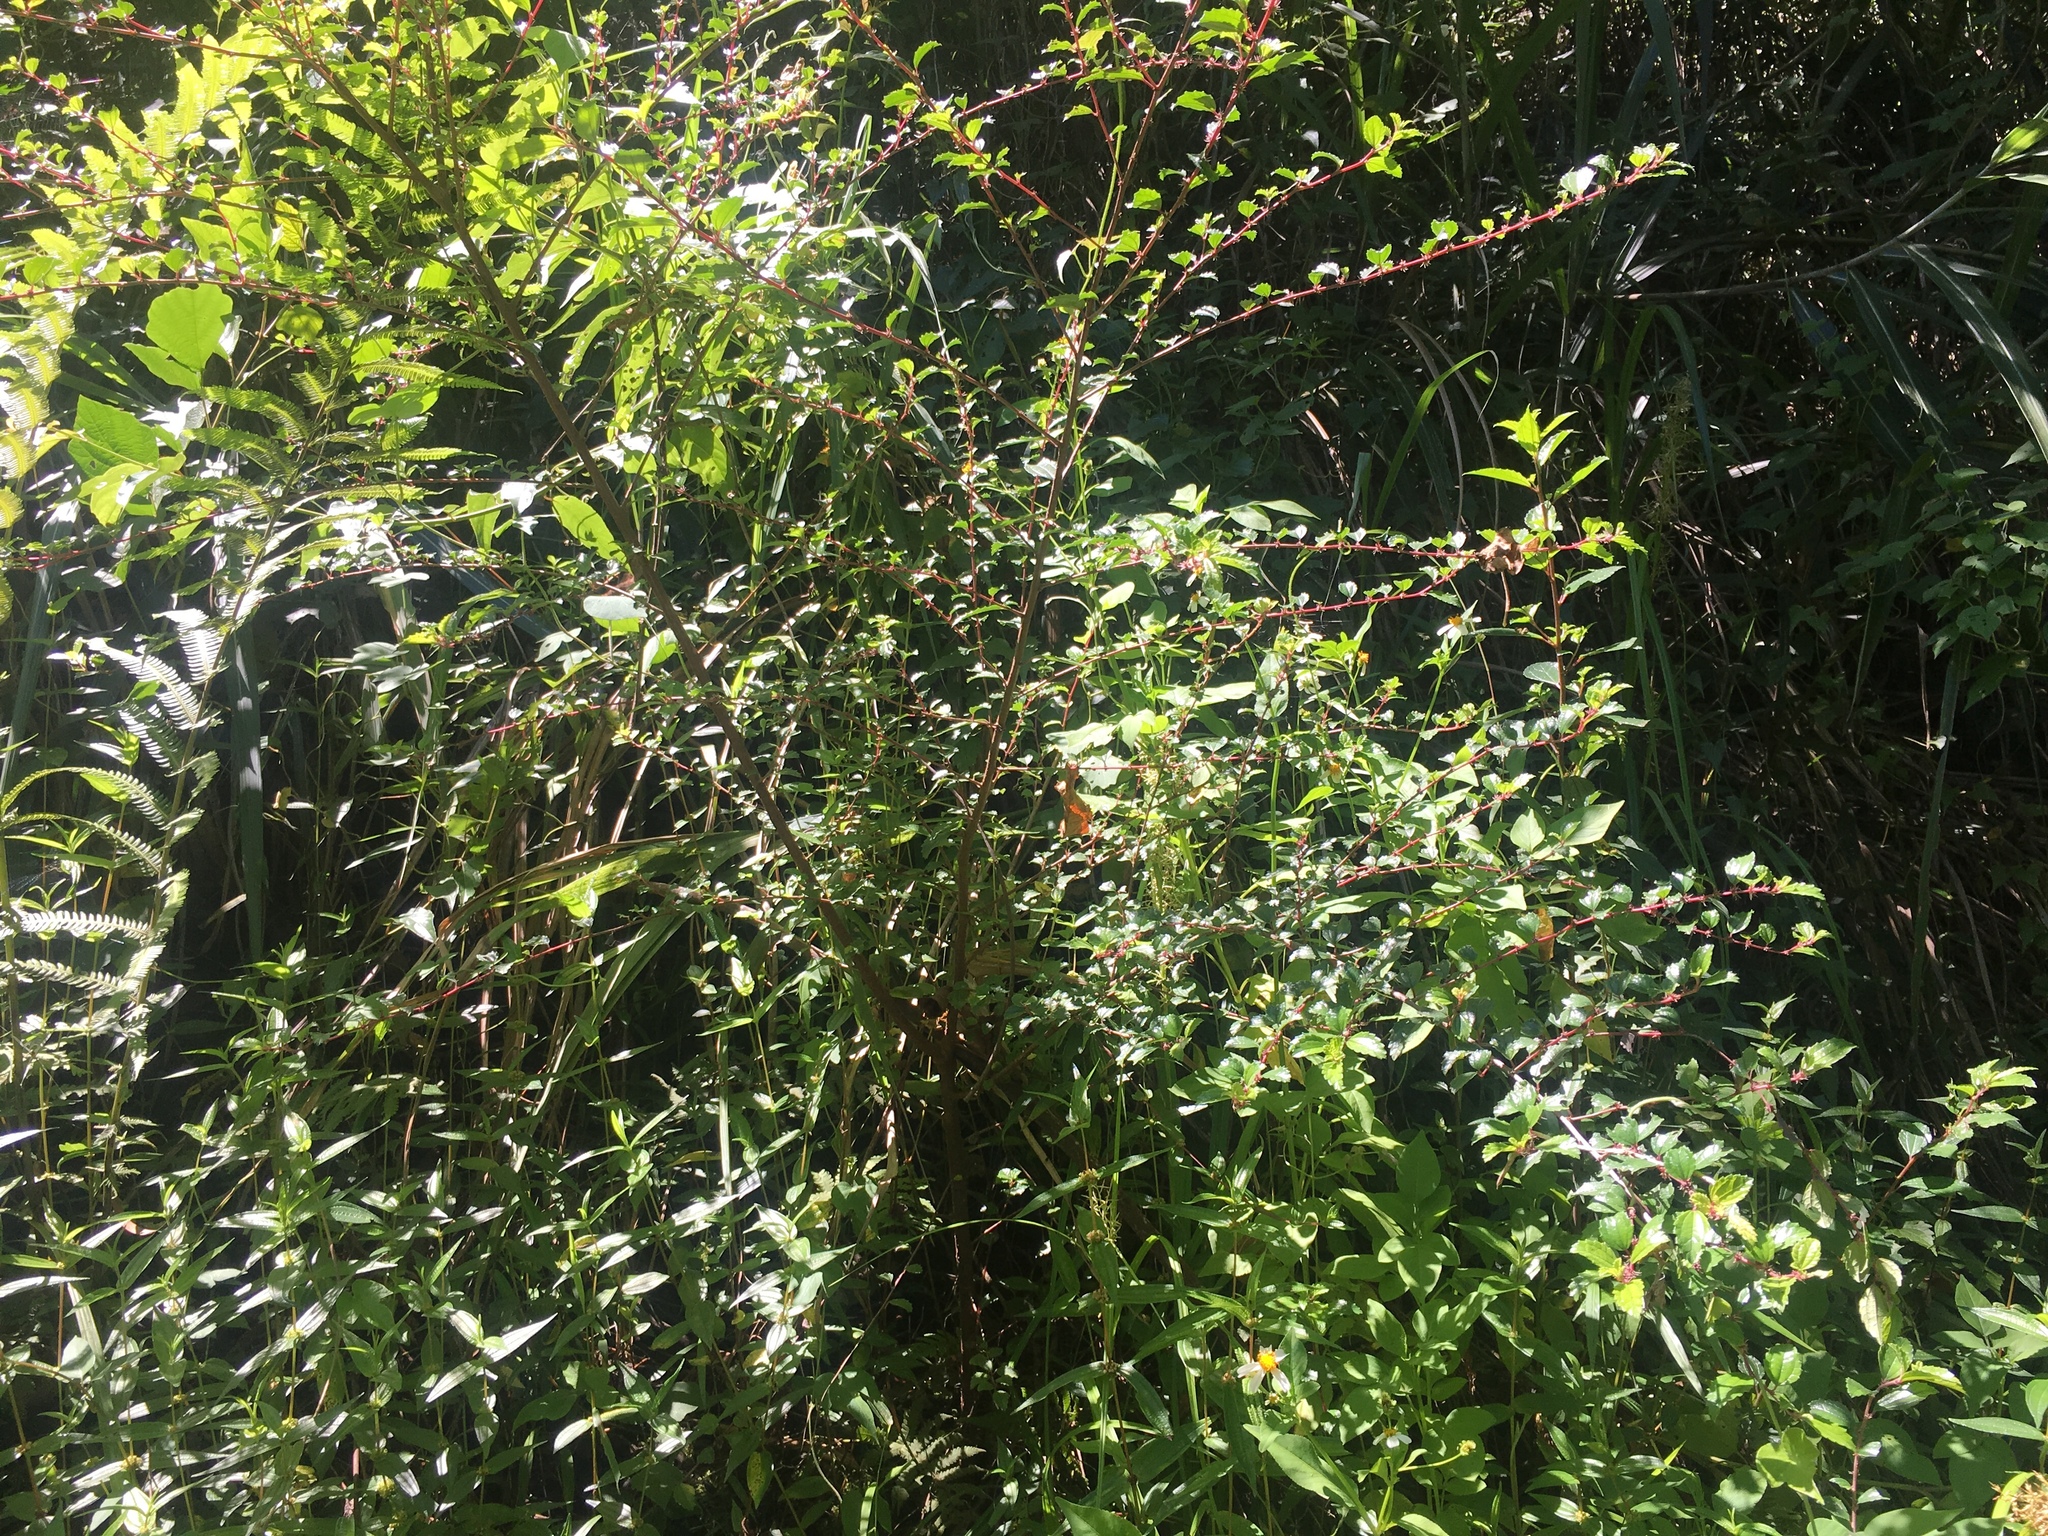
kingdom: Plantae
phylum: Tracheophyta
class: Magnoliopsida
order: Rosales
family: Urticaceae
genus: Pouzolzia
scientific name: Pouzolzia sanguinea
